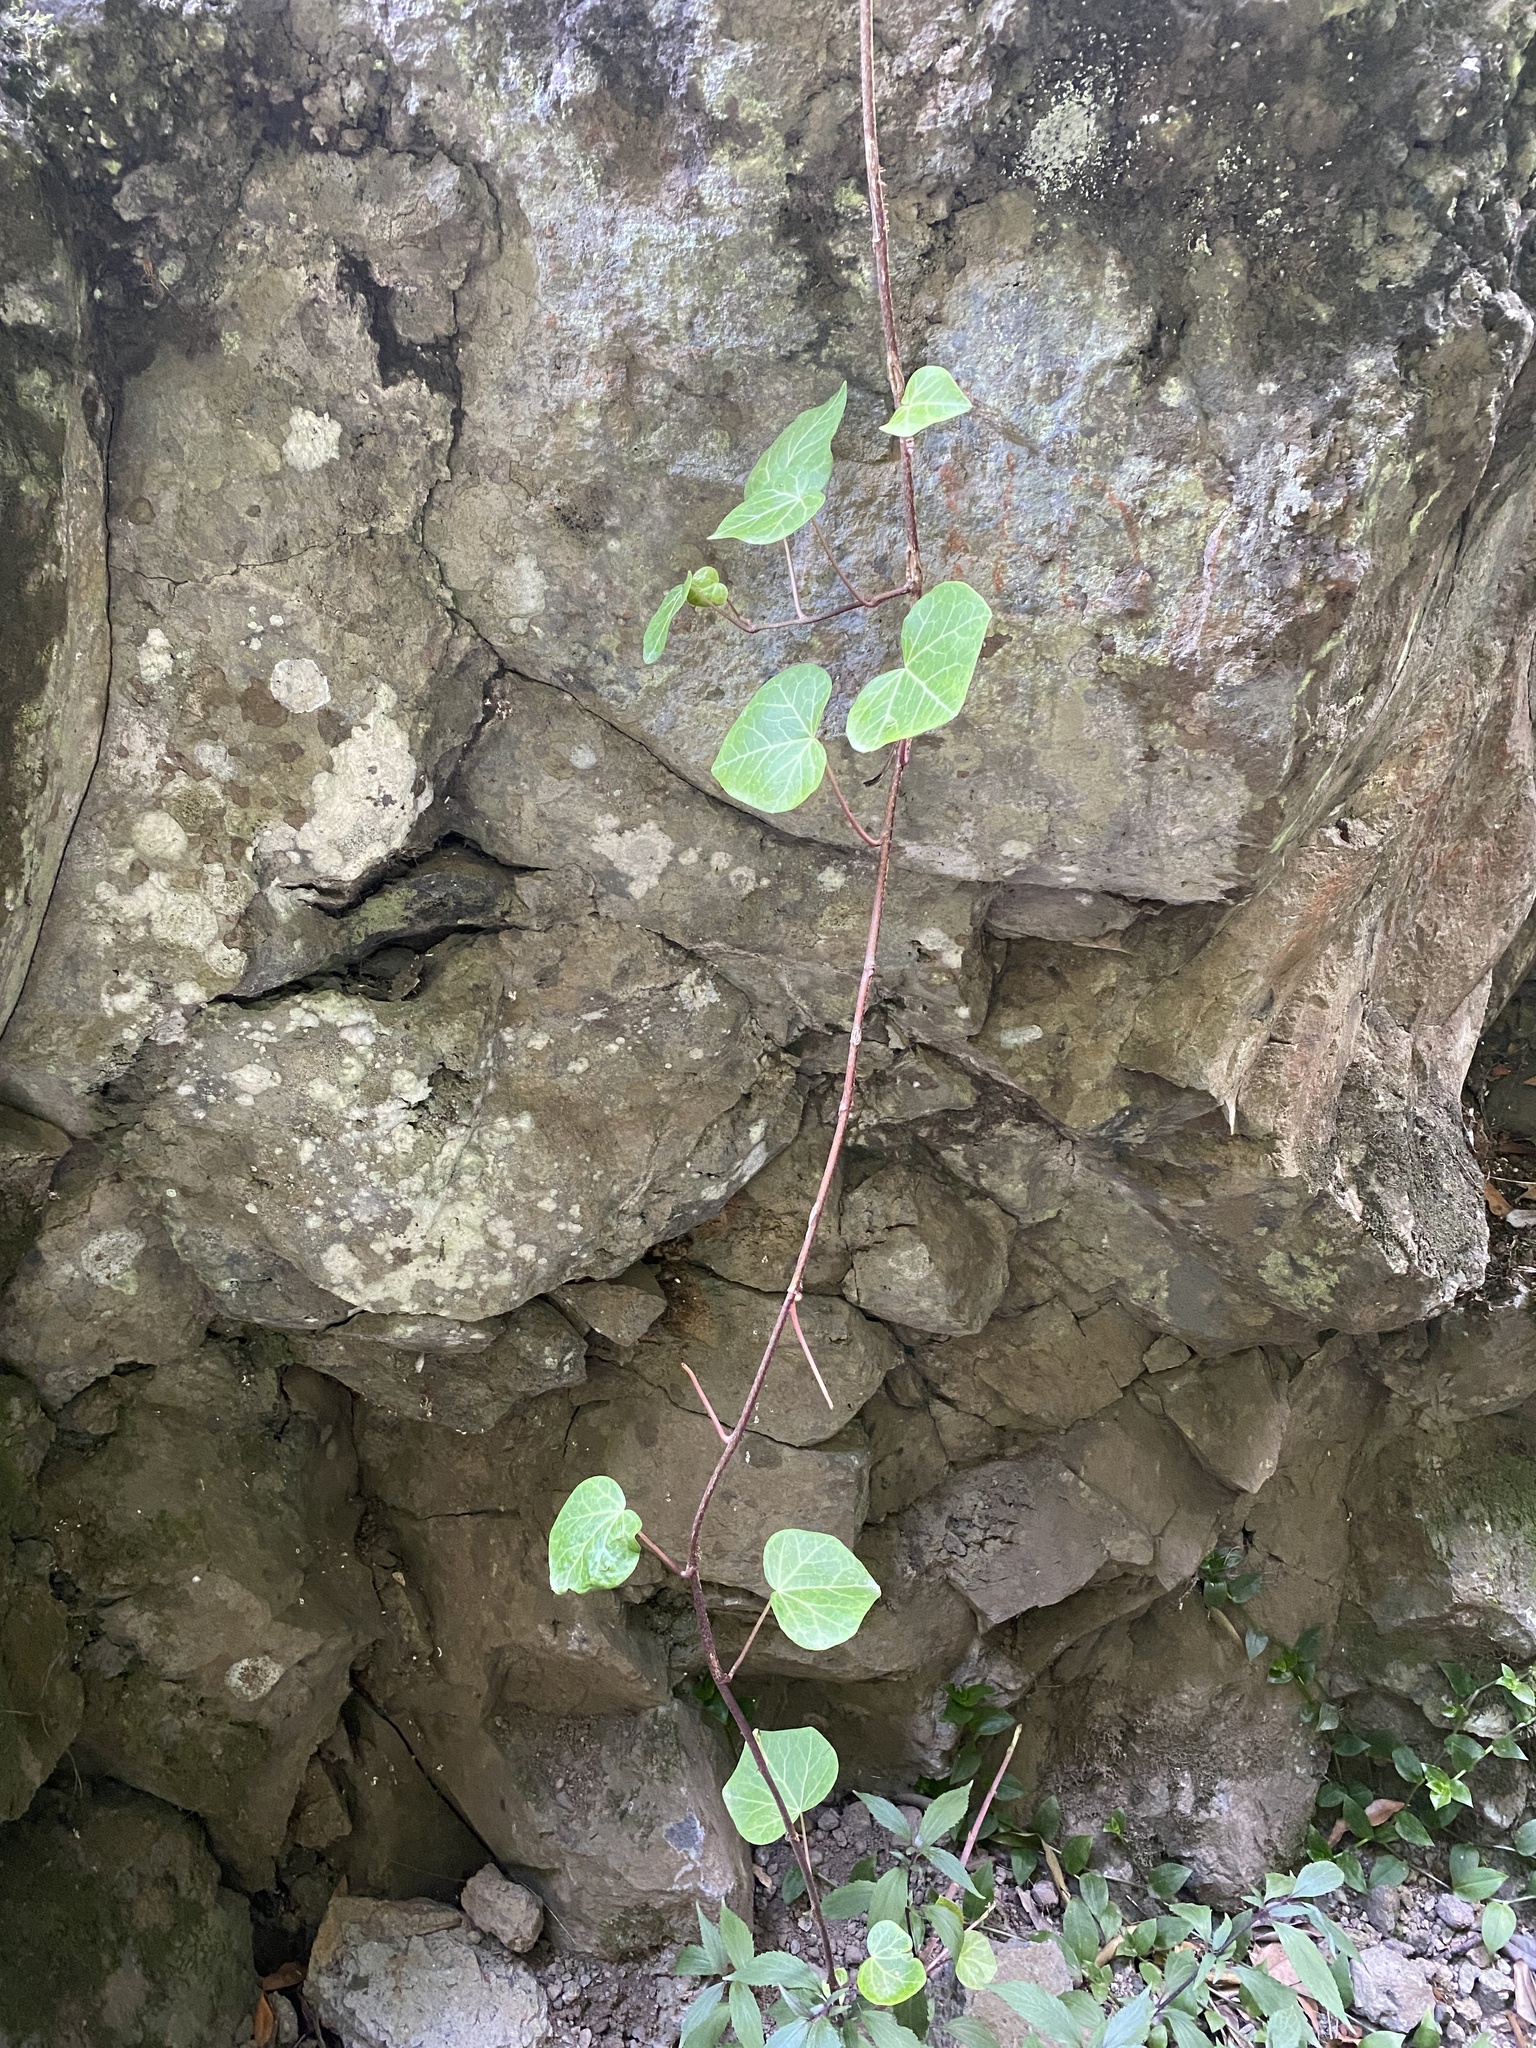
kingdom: Plantae
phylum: Tracheophyta
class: Magnoliopsida
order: Apiales
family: Araliaceae
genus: Hedera
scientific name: Hedera canariensis
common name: Madeira ivy
